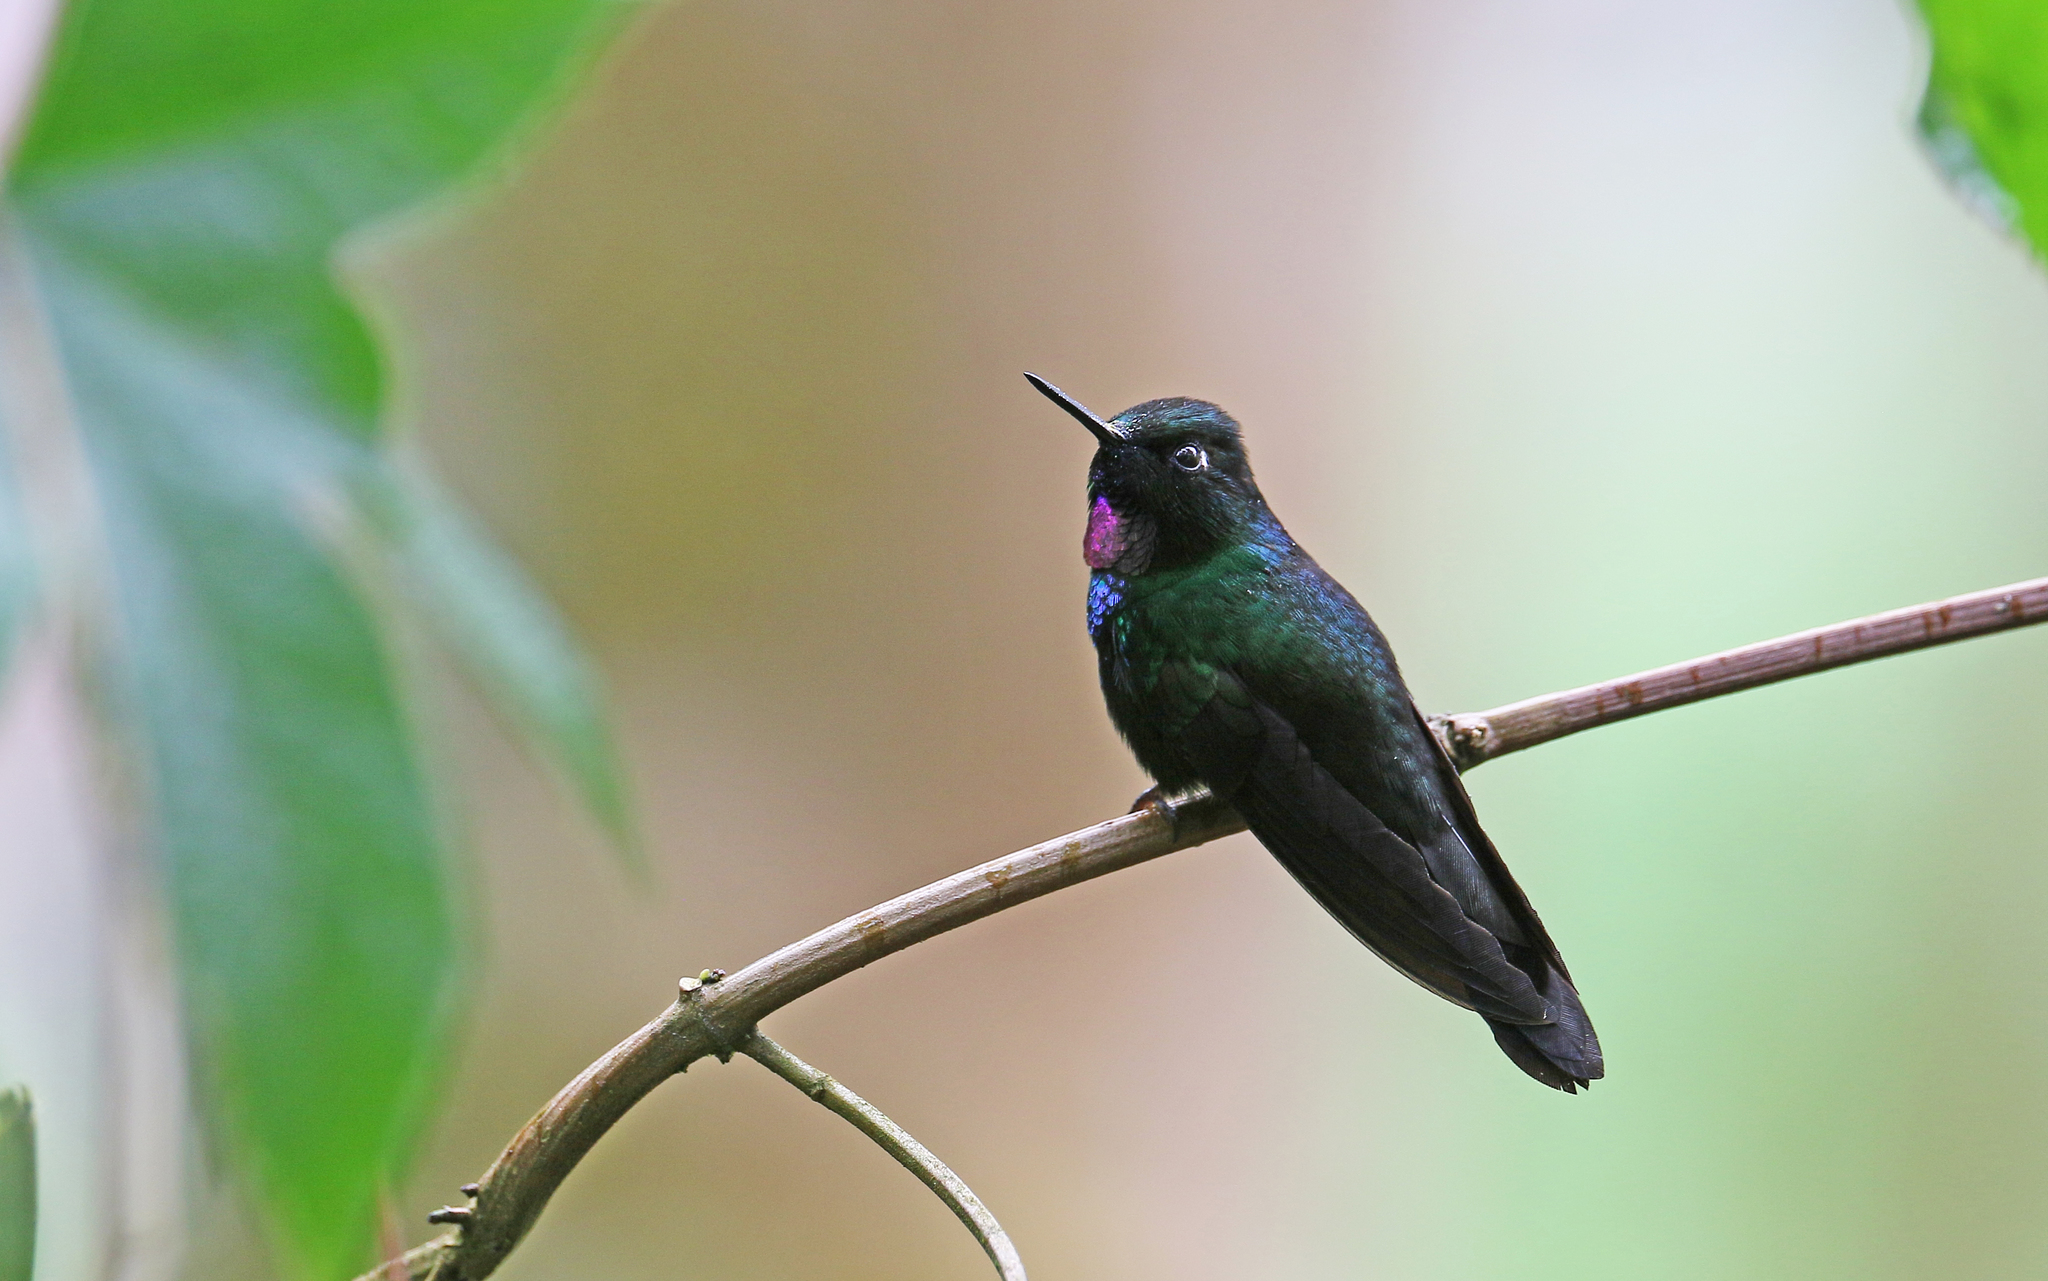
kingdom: Animalia
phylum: Chordata
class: Aves
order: Apodiformes
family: Trochilidae
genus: Heliangelus
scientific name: Heliangelus exortis
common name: Tourmaline sunangel
